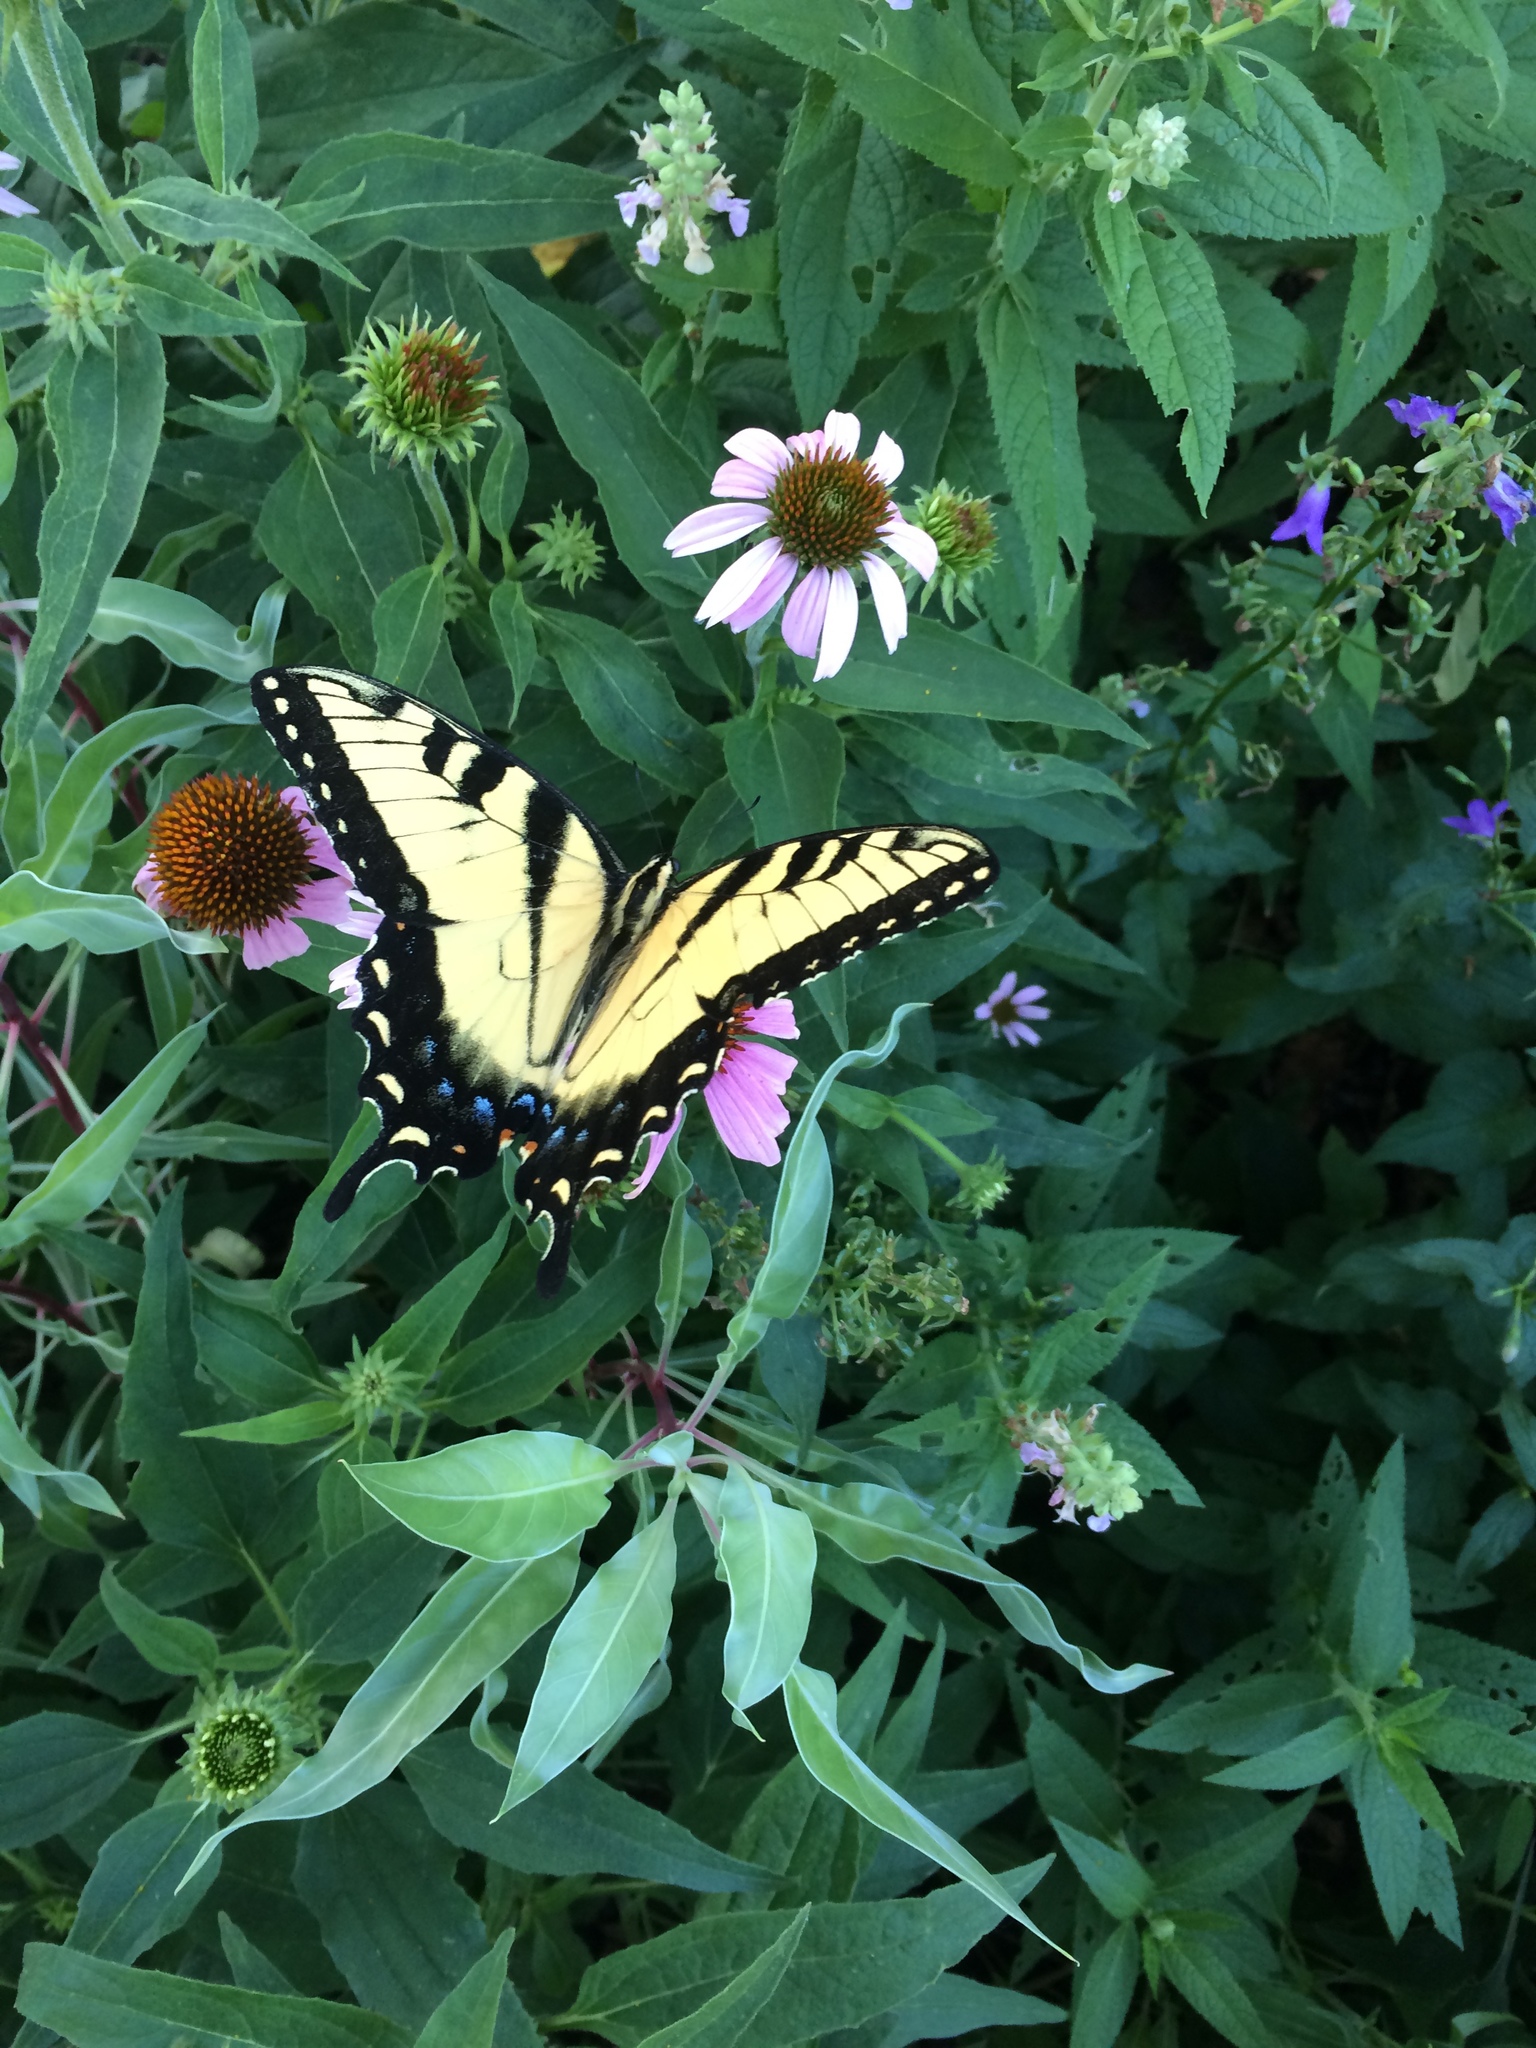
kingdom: Animalia
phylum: Arthropoda
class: Insecta
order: Lepidoptera
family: Papilionidae
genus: Papilio
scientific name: Papilio glaucus
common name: Tiger swallowtail
